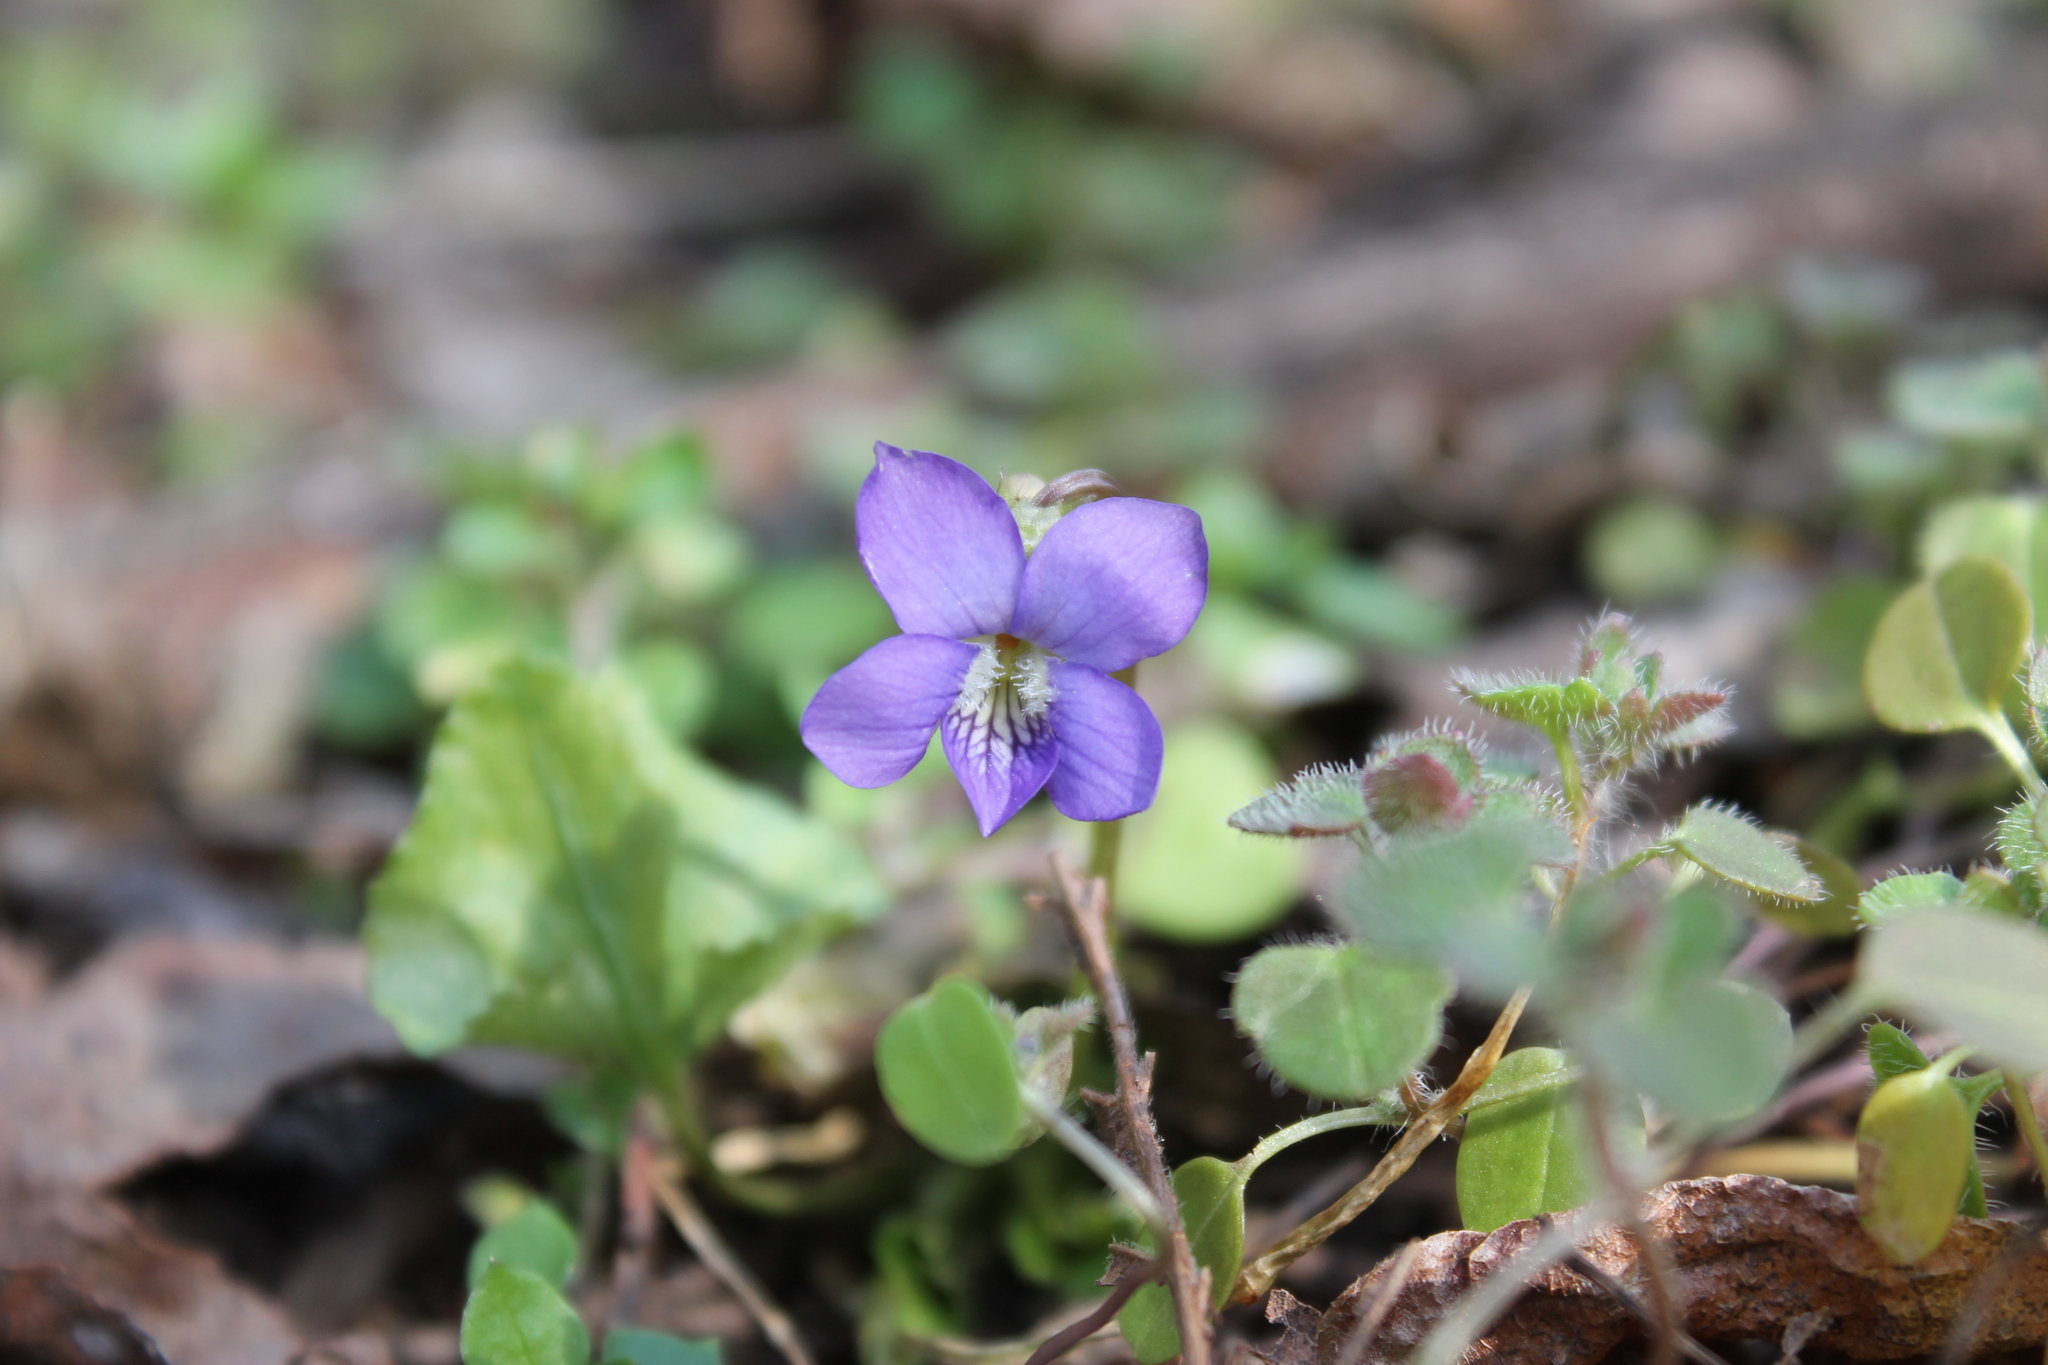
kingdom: Plantae
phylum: Tracheophyta
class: Magnoliopsida
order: Malpighiales
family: Violaceae
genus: Viola
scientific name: Viola sororia
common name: Dooryard violet
